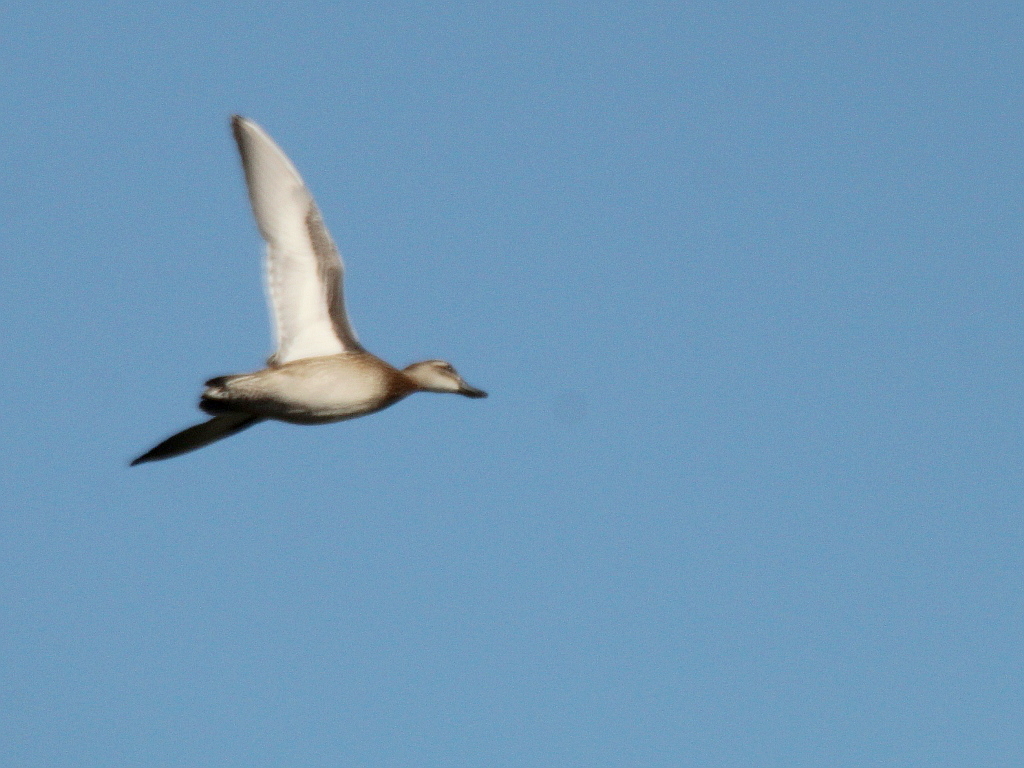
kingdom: Animalia
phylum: Chordata
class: Aves
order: Anseriformes
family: Anatidae
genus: Spatula
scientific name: Spatula querquedula
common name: Garganey
